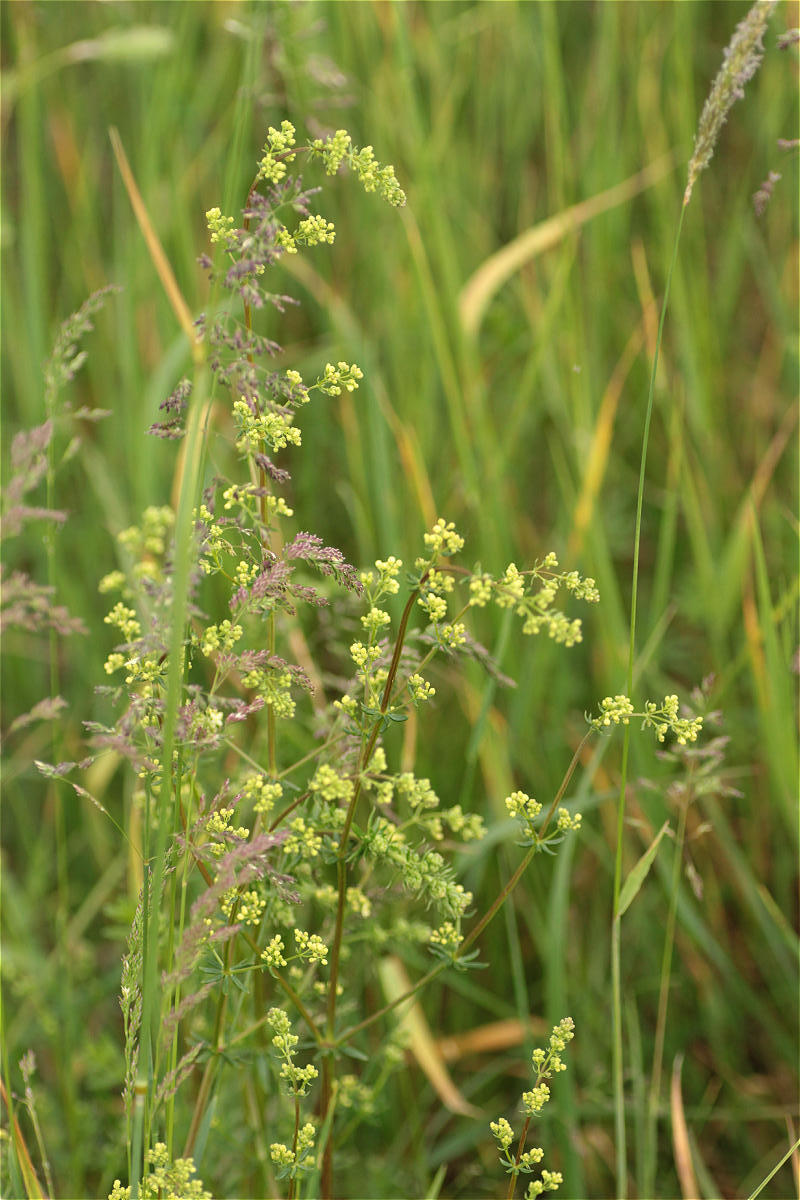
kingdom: Plantae
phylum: Tracheophyta
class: Magnoliopsida
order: Gentianales
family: Rubiaceae
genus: Galium
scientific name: Galium verum
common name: Lady's bedstraw
